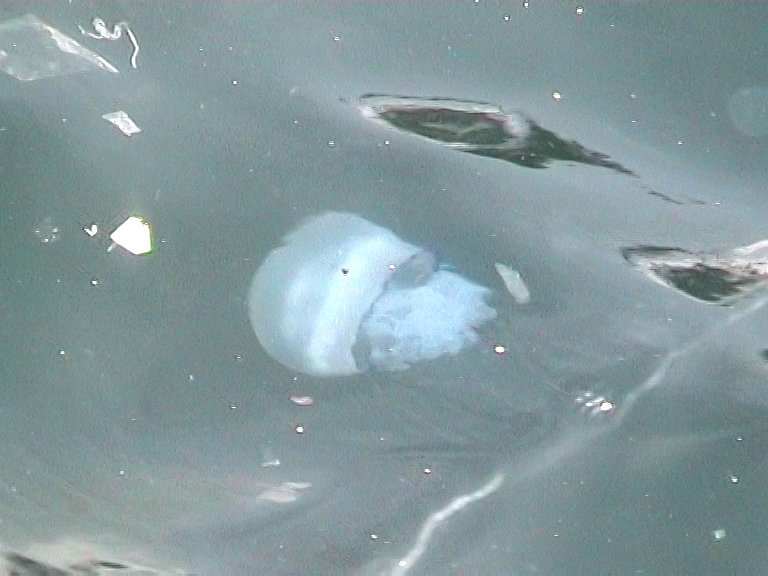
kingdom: Animalia
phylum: Cnidaria
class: Scyphozoa
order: Rhizostomeae
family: Rhizostomatidae
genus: Rhizostoma
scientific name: Rhizostoma pulmo
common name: Barrel jellyfish
